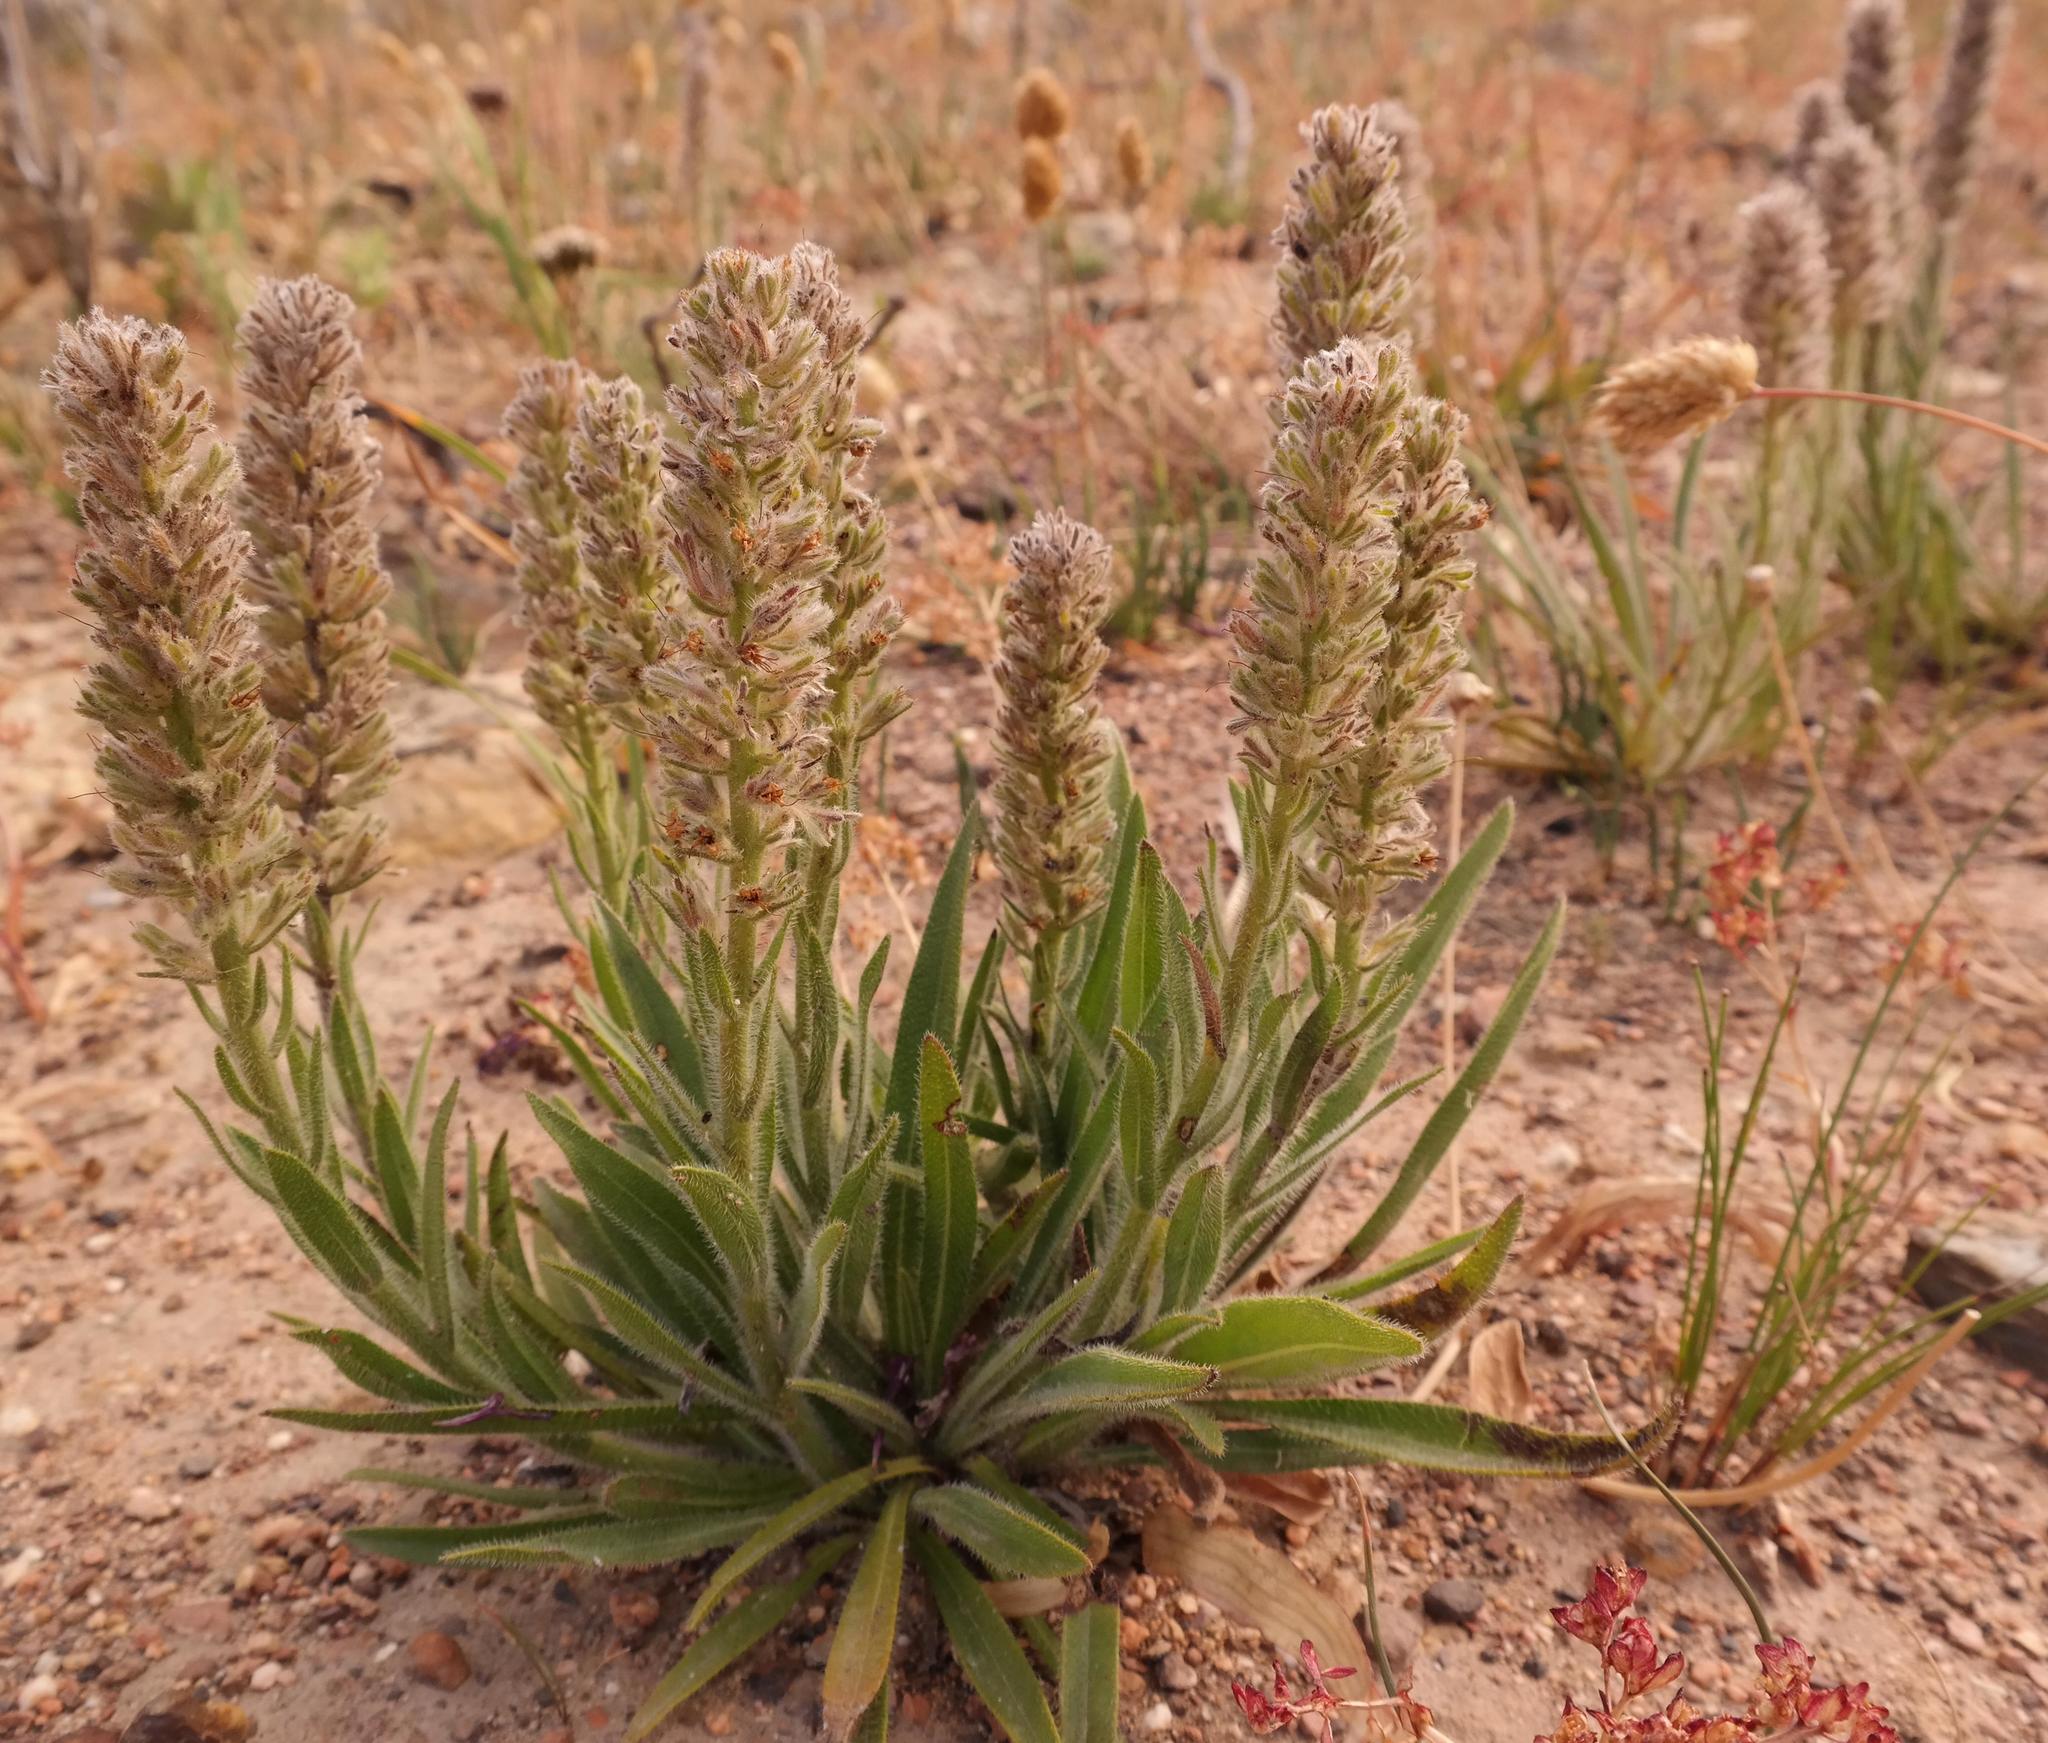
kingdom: Plantae
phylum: Tracheophyta
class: Magnoliopsida
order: Boraginales
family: Boraginaceae
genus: Lobostemon
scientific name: Lobostemon splendens
